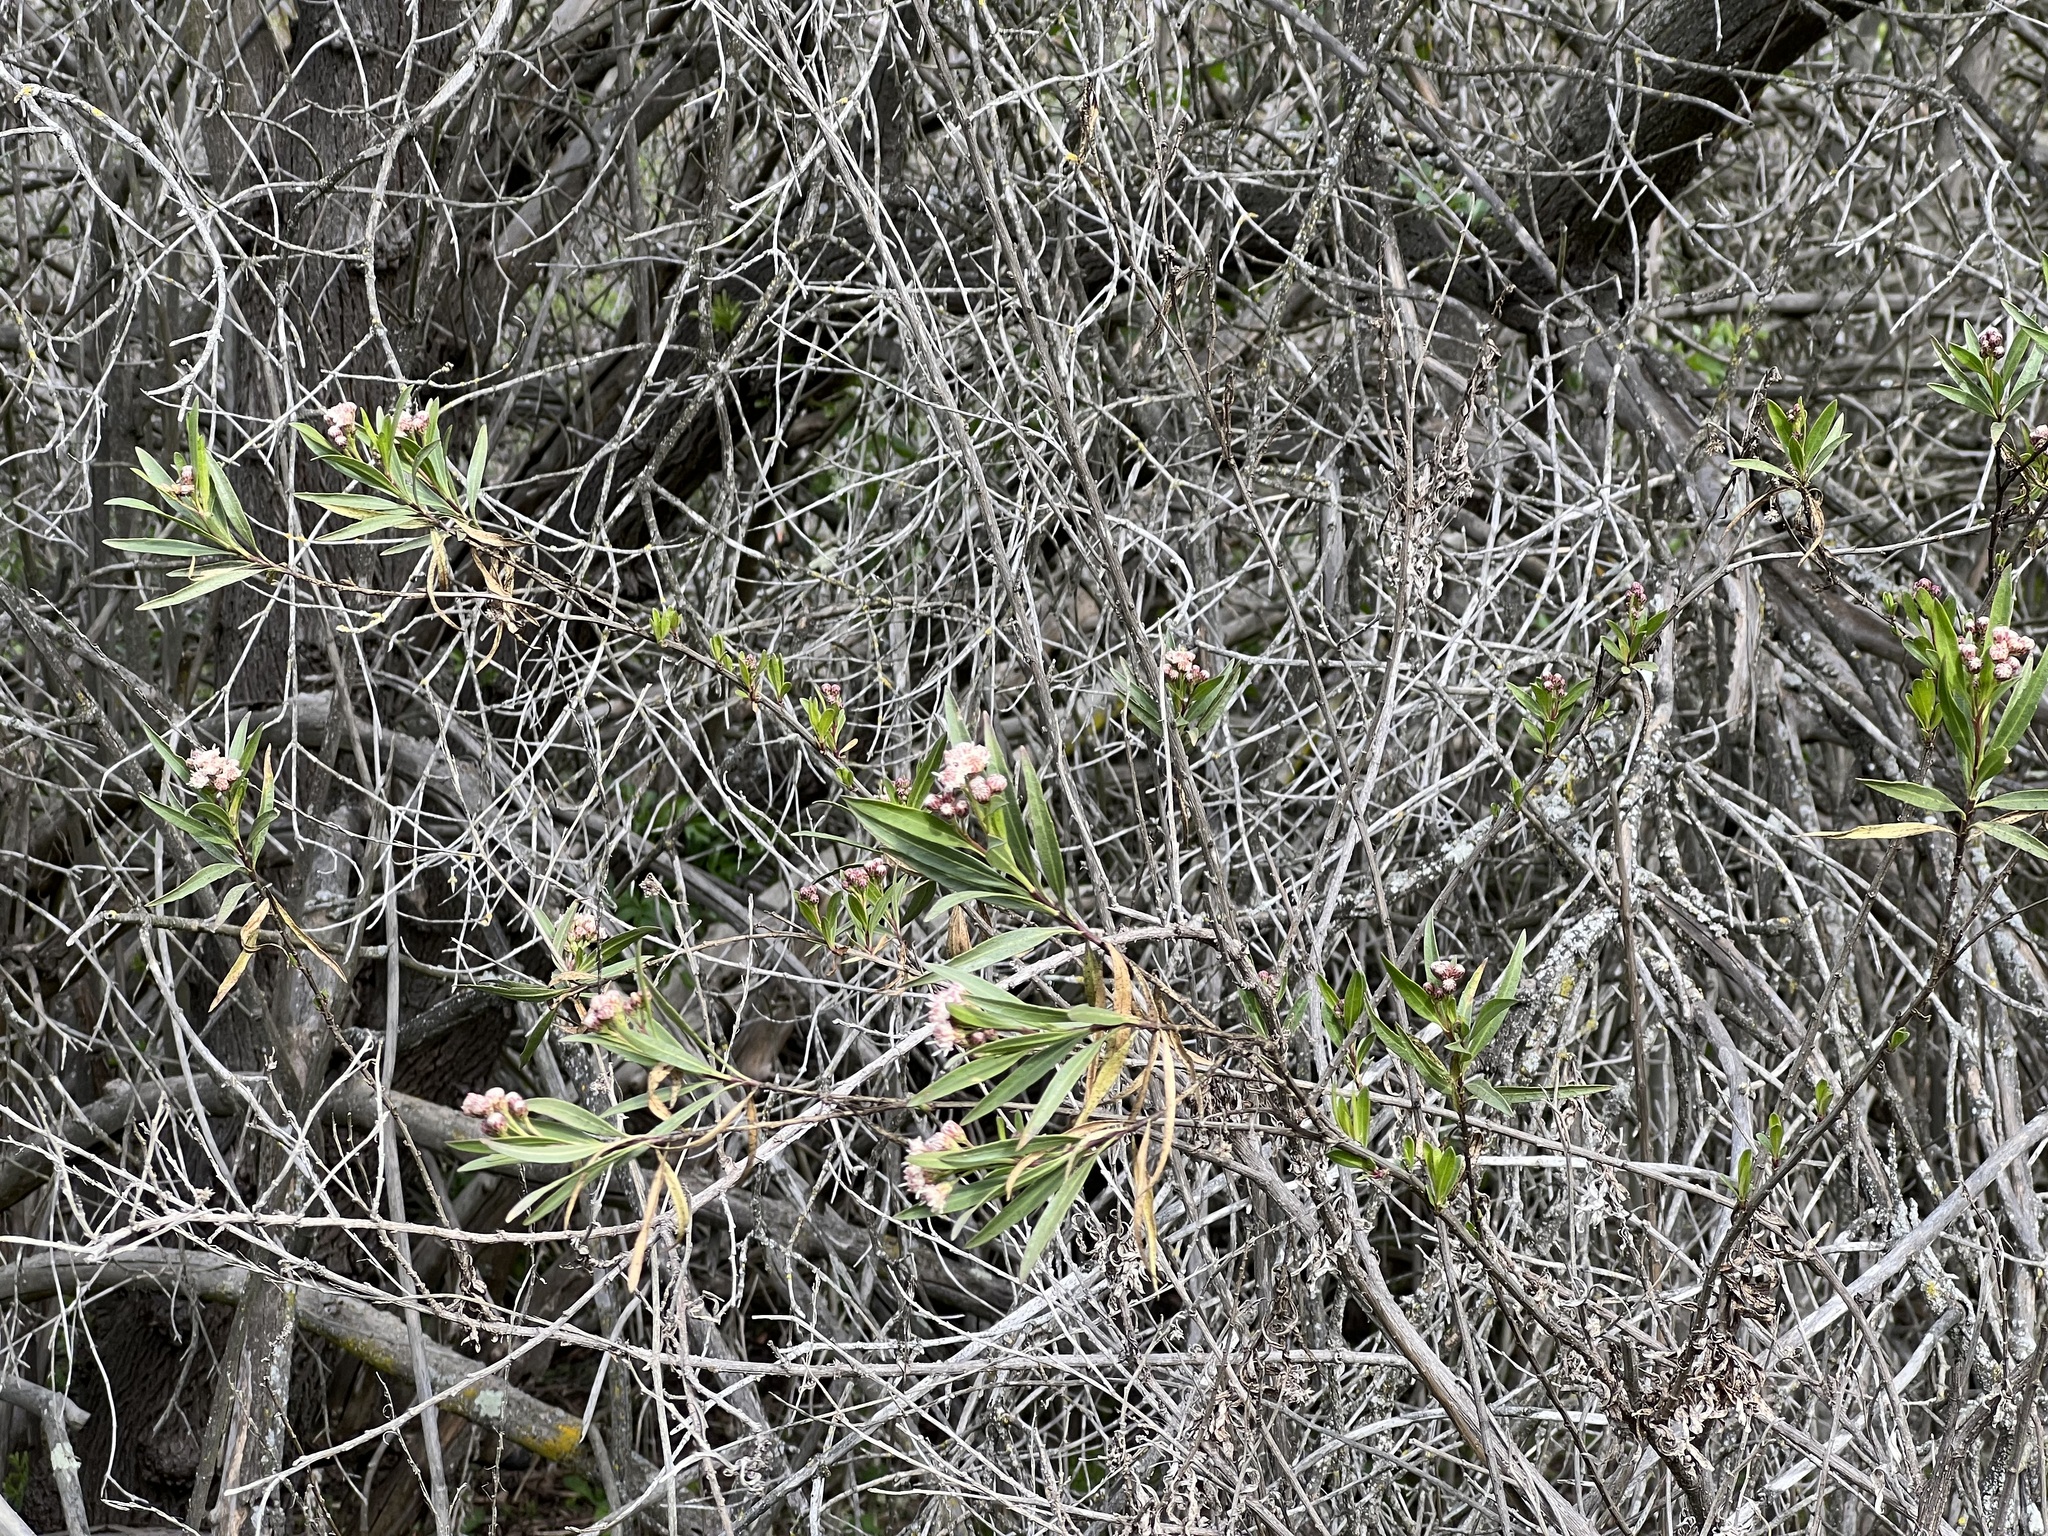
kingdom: Plantae
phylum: Tracheophyta
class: Magnoliopsida
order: Asterales
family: Asteraceae
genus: Baccharis
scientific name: Baccharis salicifolia
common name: Sticky baccharis
